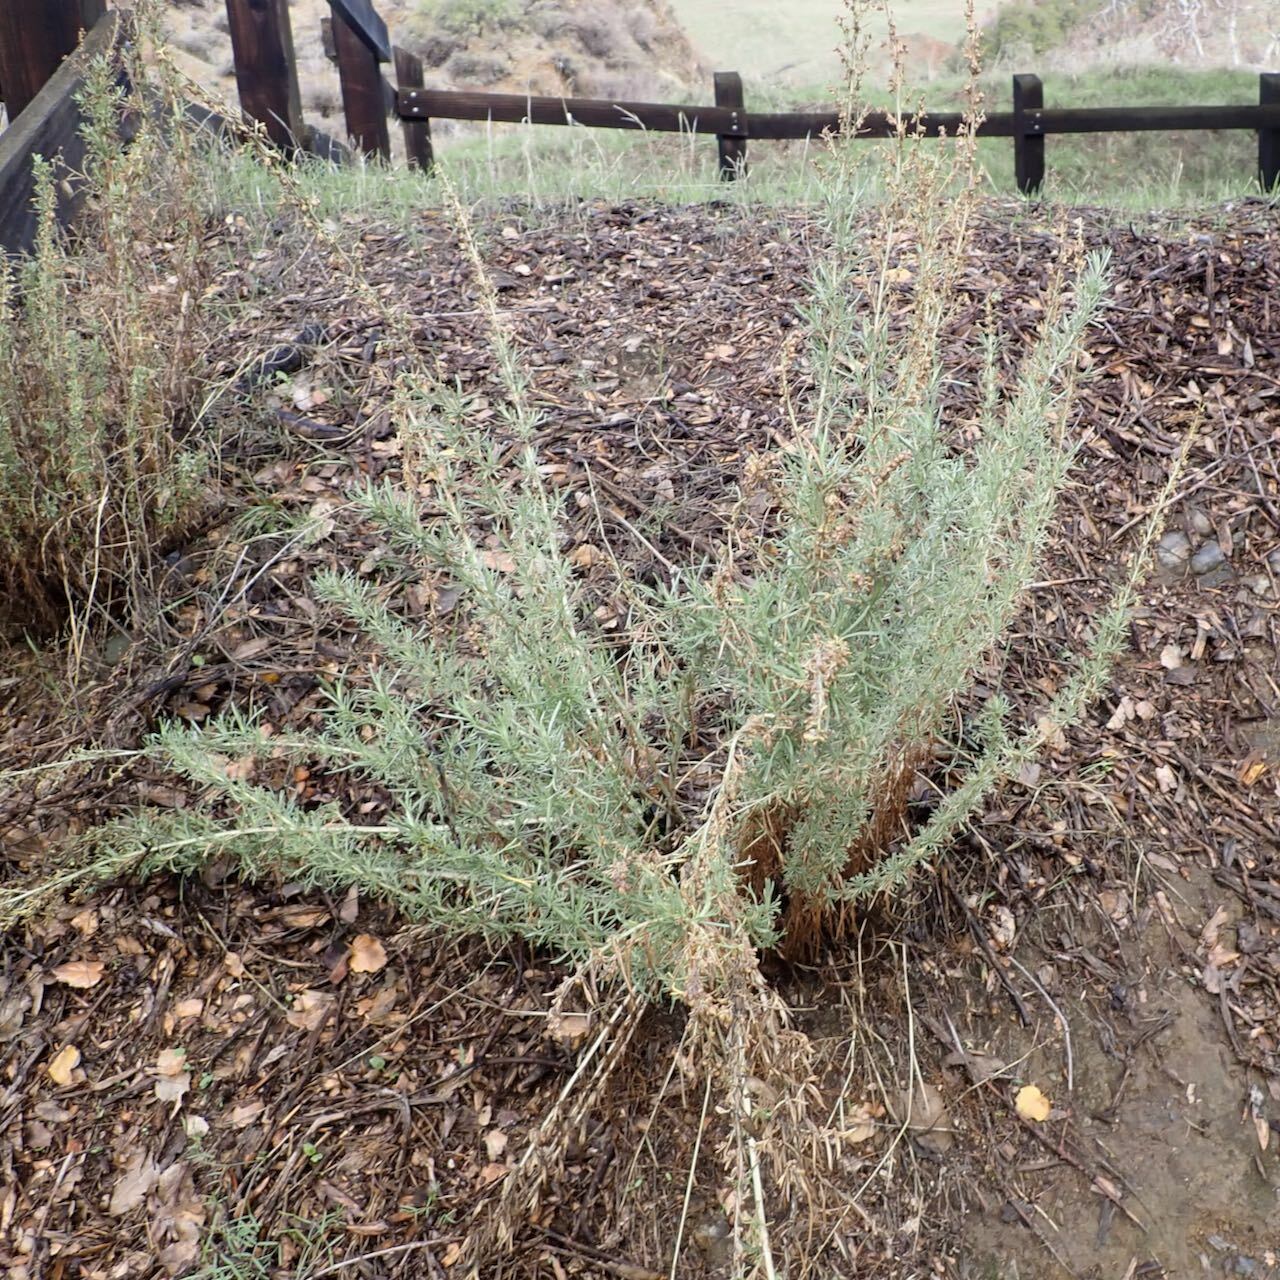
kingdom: Plantae
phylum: Tracheophyta
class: Magnoliopsida
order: Asterales
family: Asteraceae
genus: Artemisia
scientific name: Artemisia californica
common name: California sagebrush
